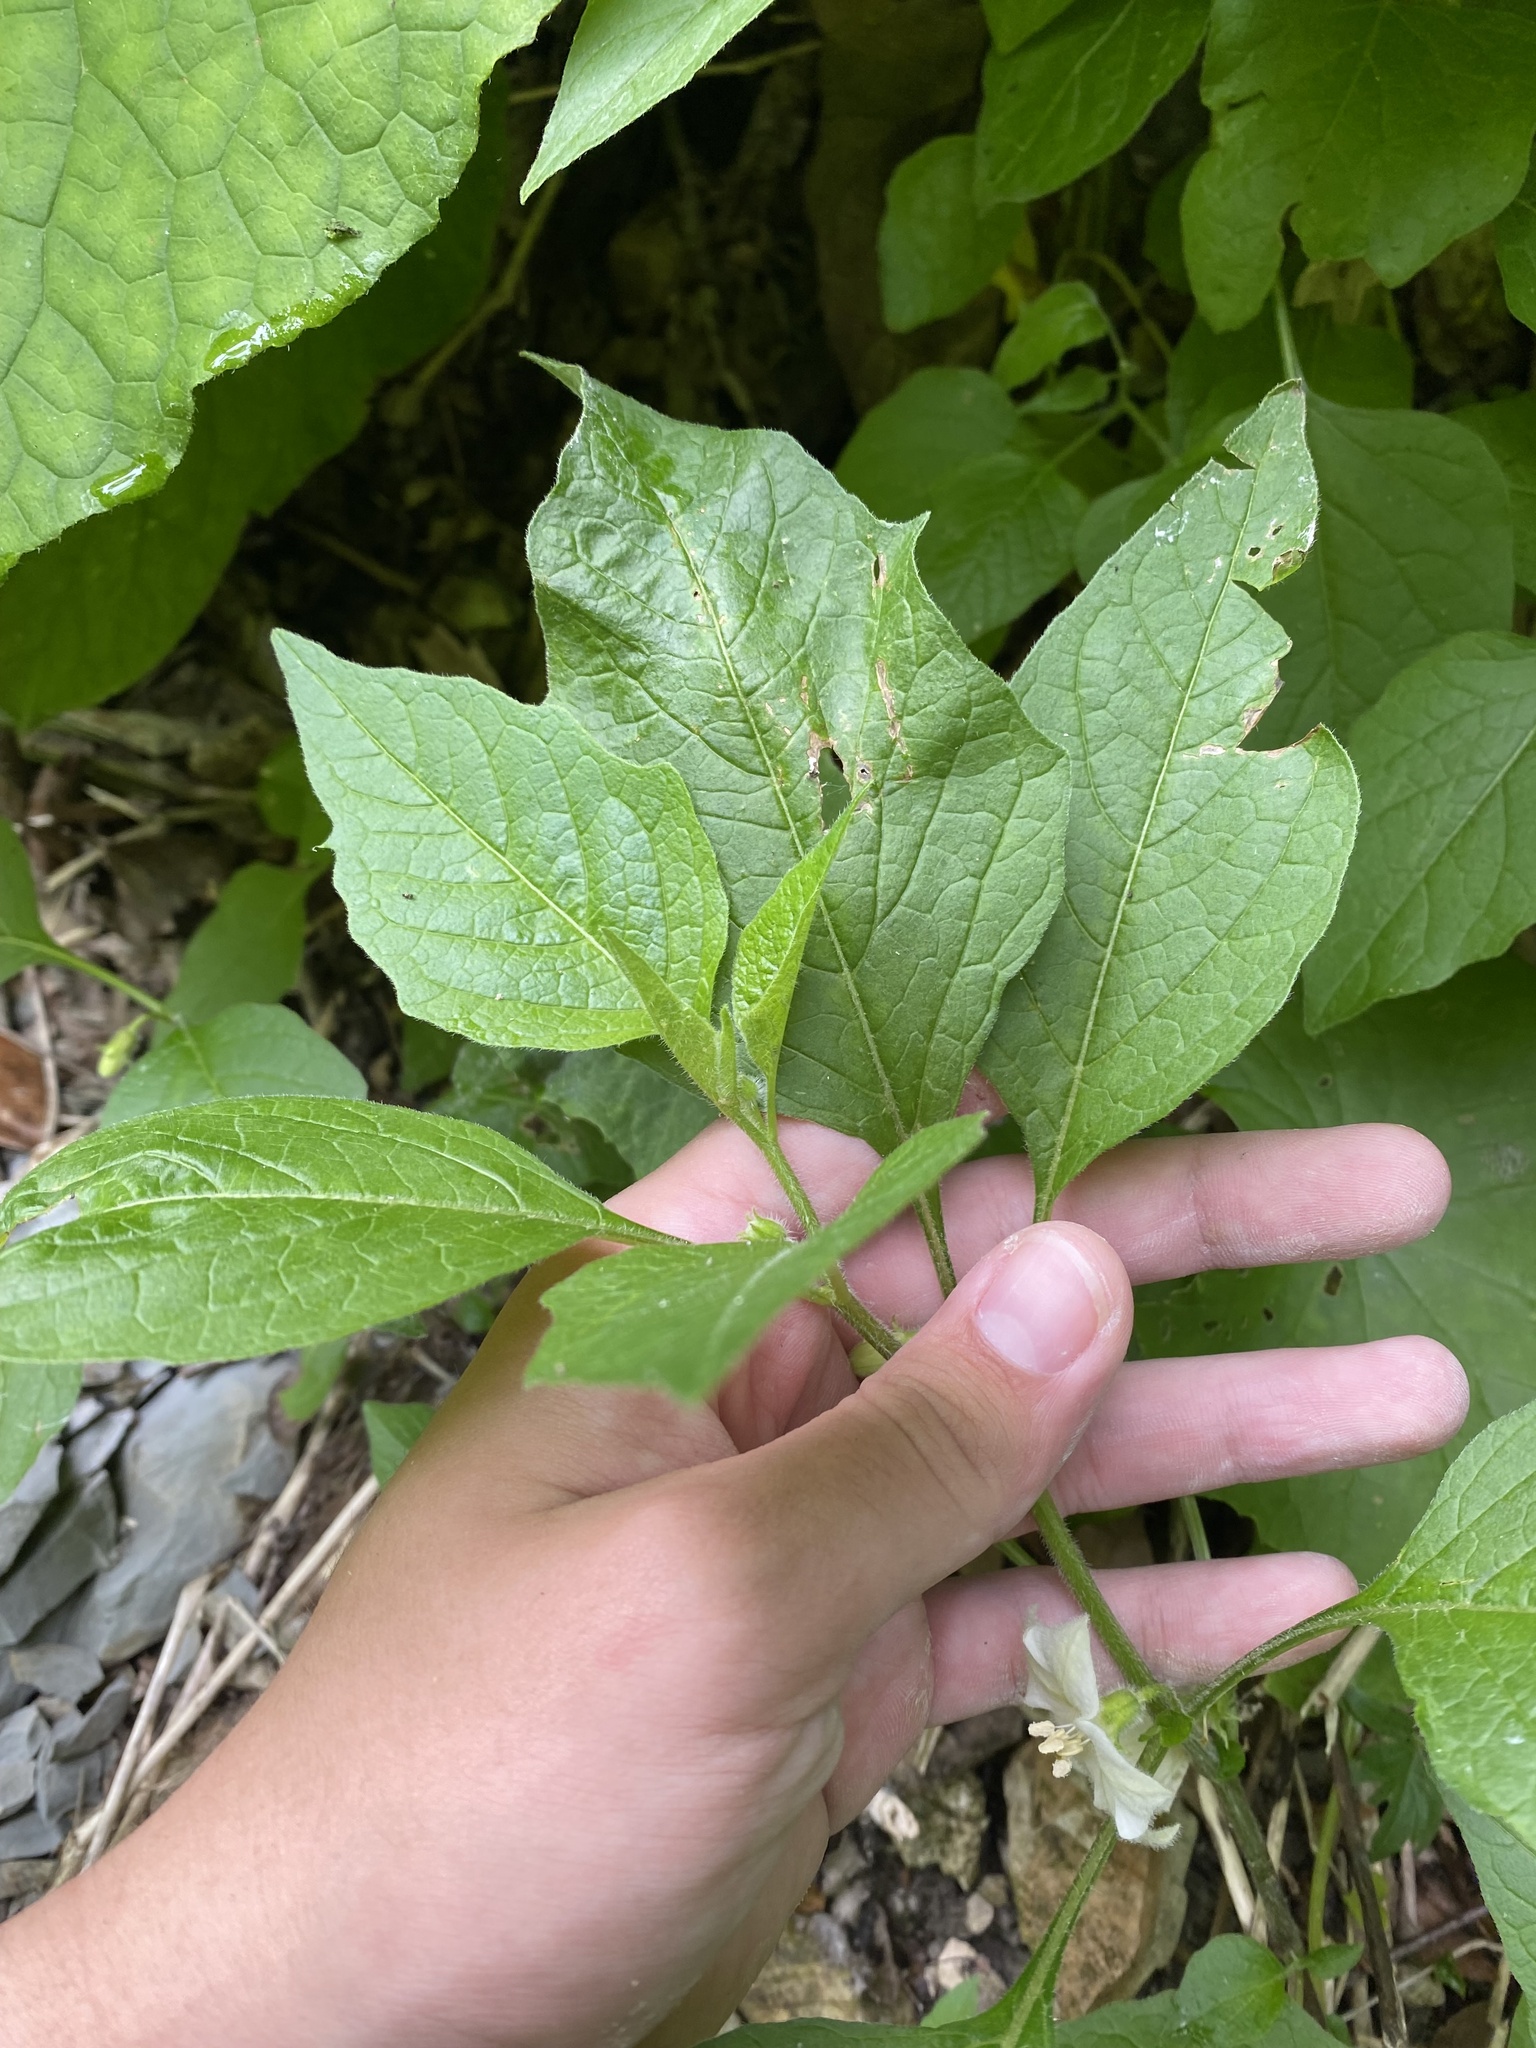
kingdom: Plantae
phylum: Tracheophyta
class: Magnoliopsida
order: Solanales
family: Solanaceae
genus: Alkekengi
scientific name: Alkekengi officinarum
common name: Japanese-lantern
